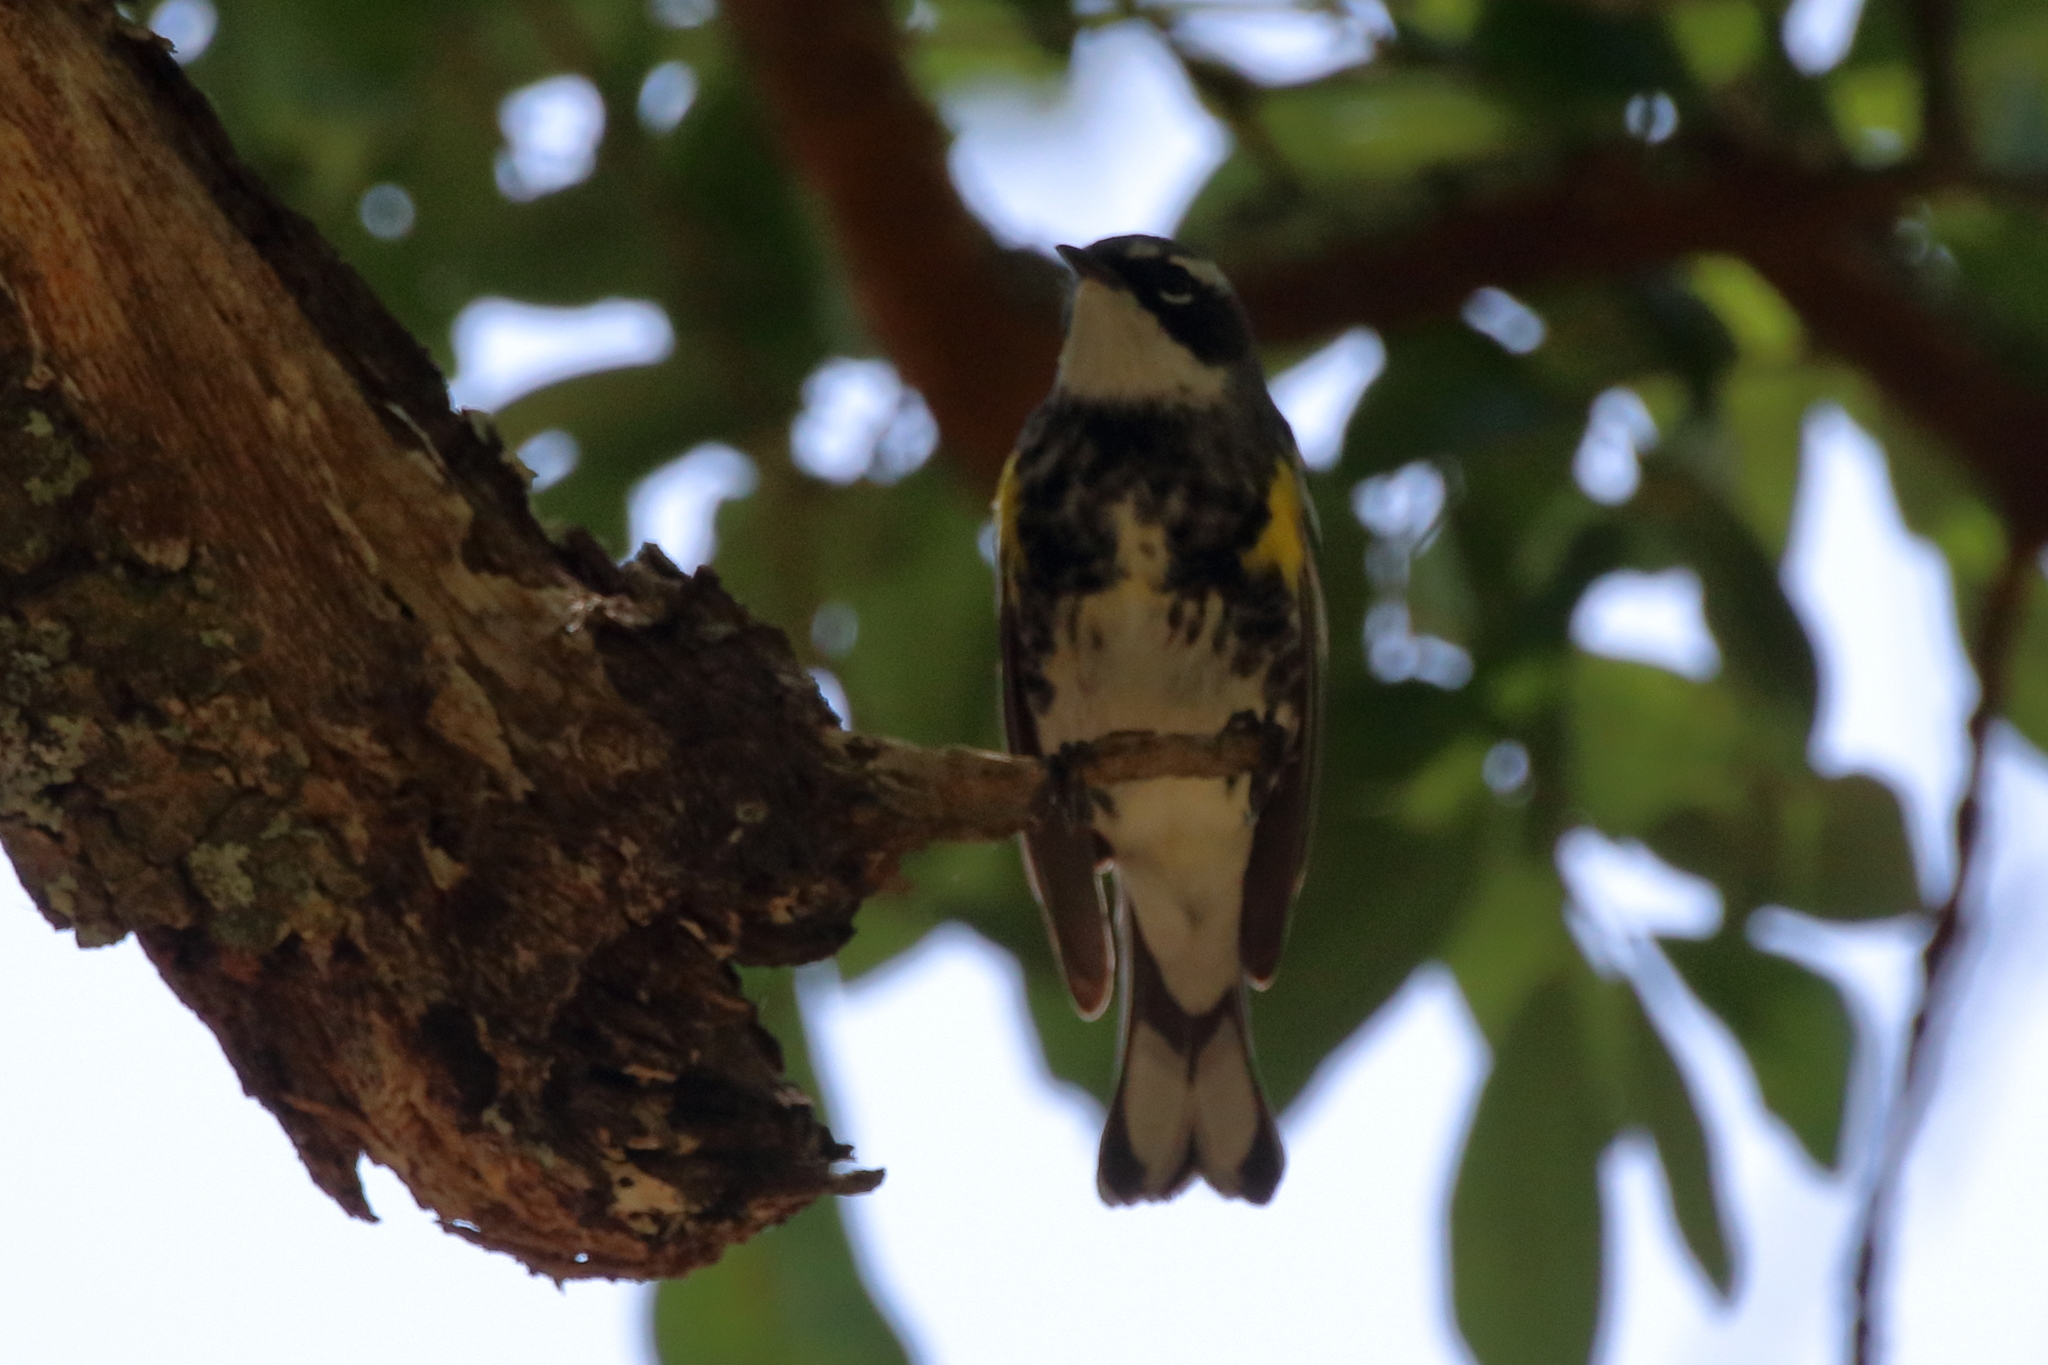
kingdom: Animalia
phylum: Chordata
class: Aves
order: Passeriformes
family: Parulidae
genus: Setophaga
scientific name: Setophaga coronata
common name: Myrtle warbler
